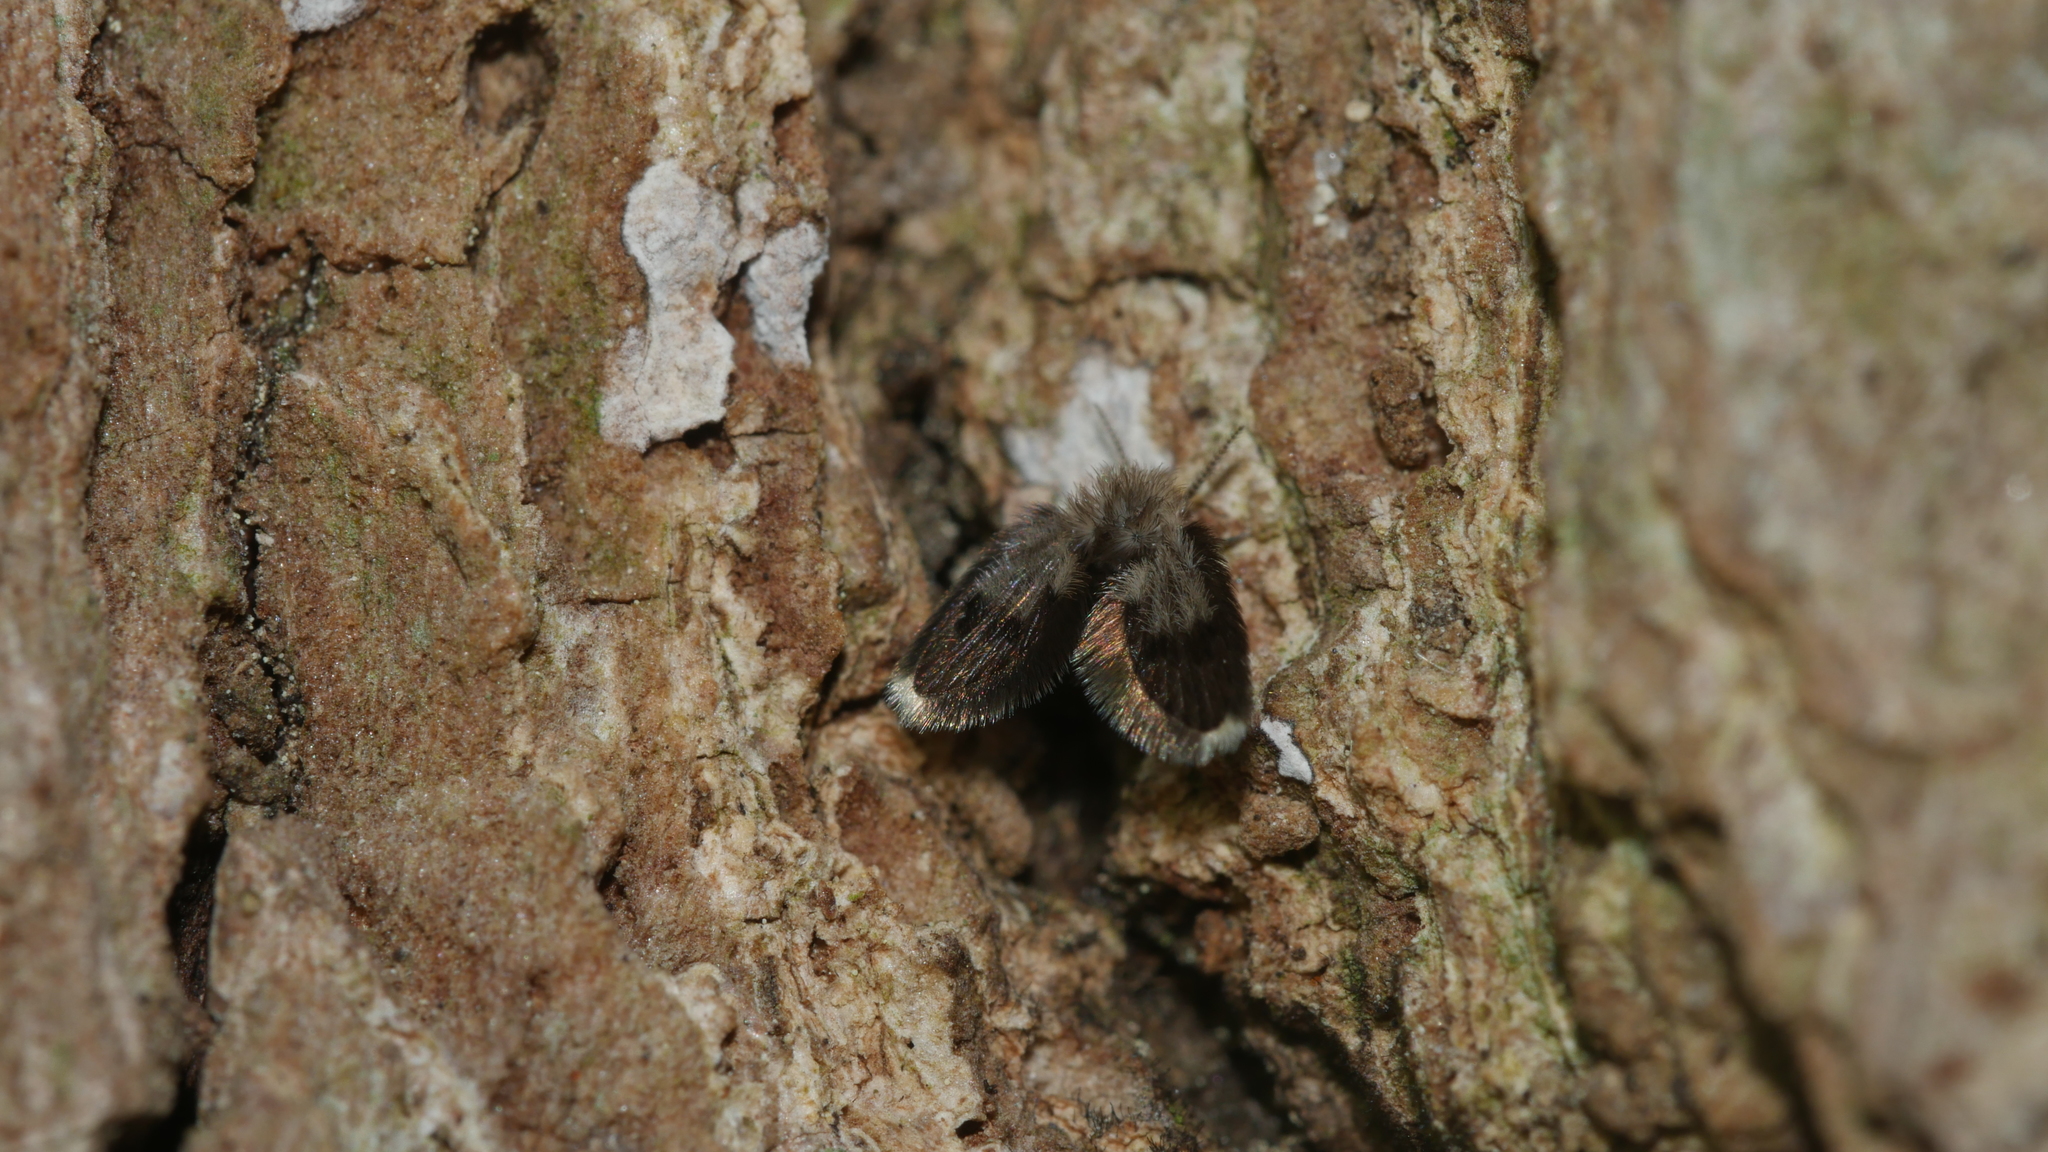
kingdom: Animalia
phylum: Arthropoda
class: Insecta
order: Diptera
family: Psychodidae
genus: Lepiseodina
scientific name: Lepiseodina
